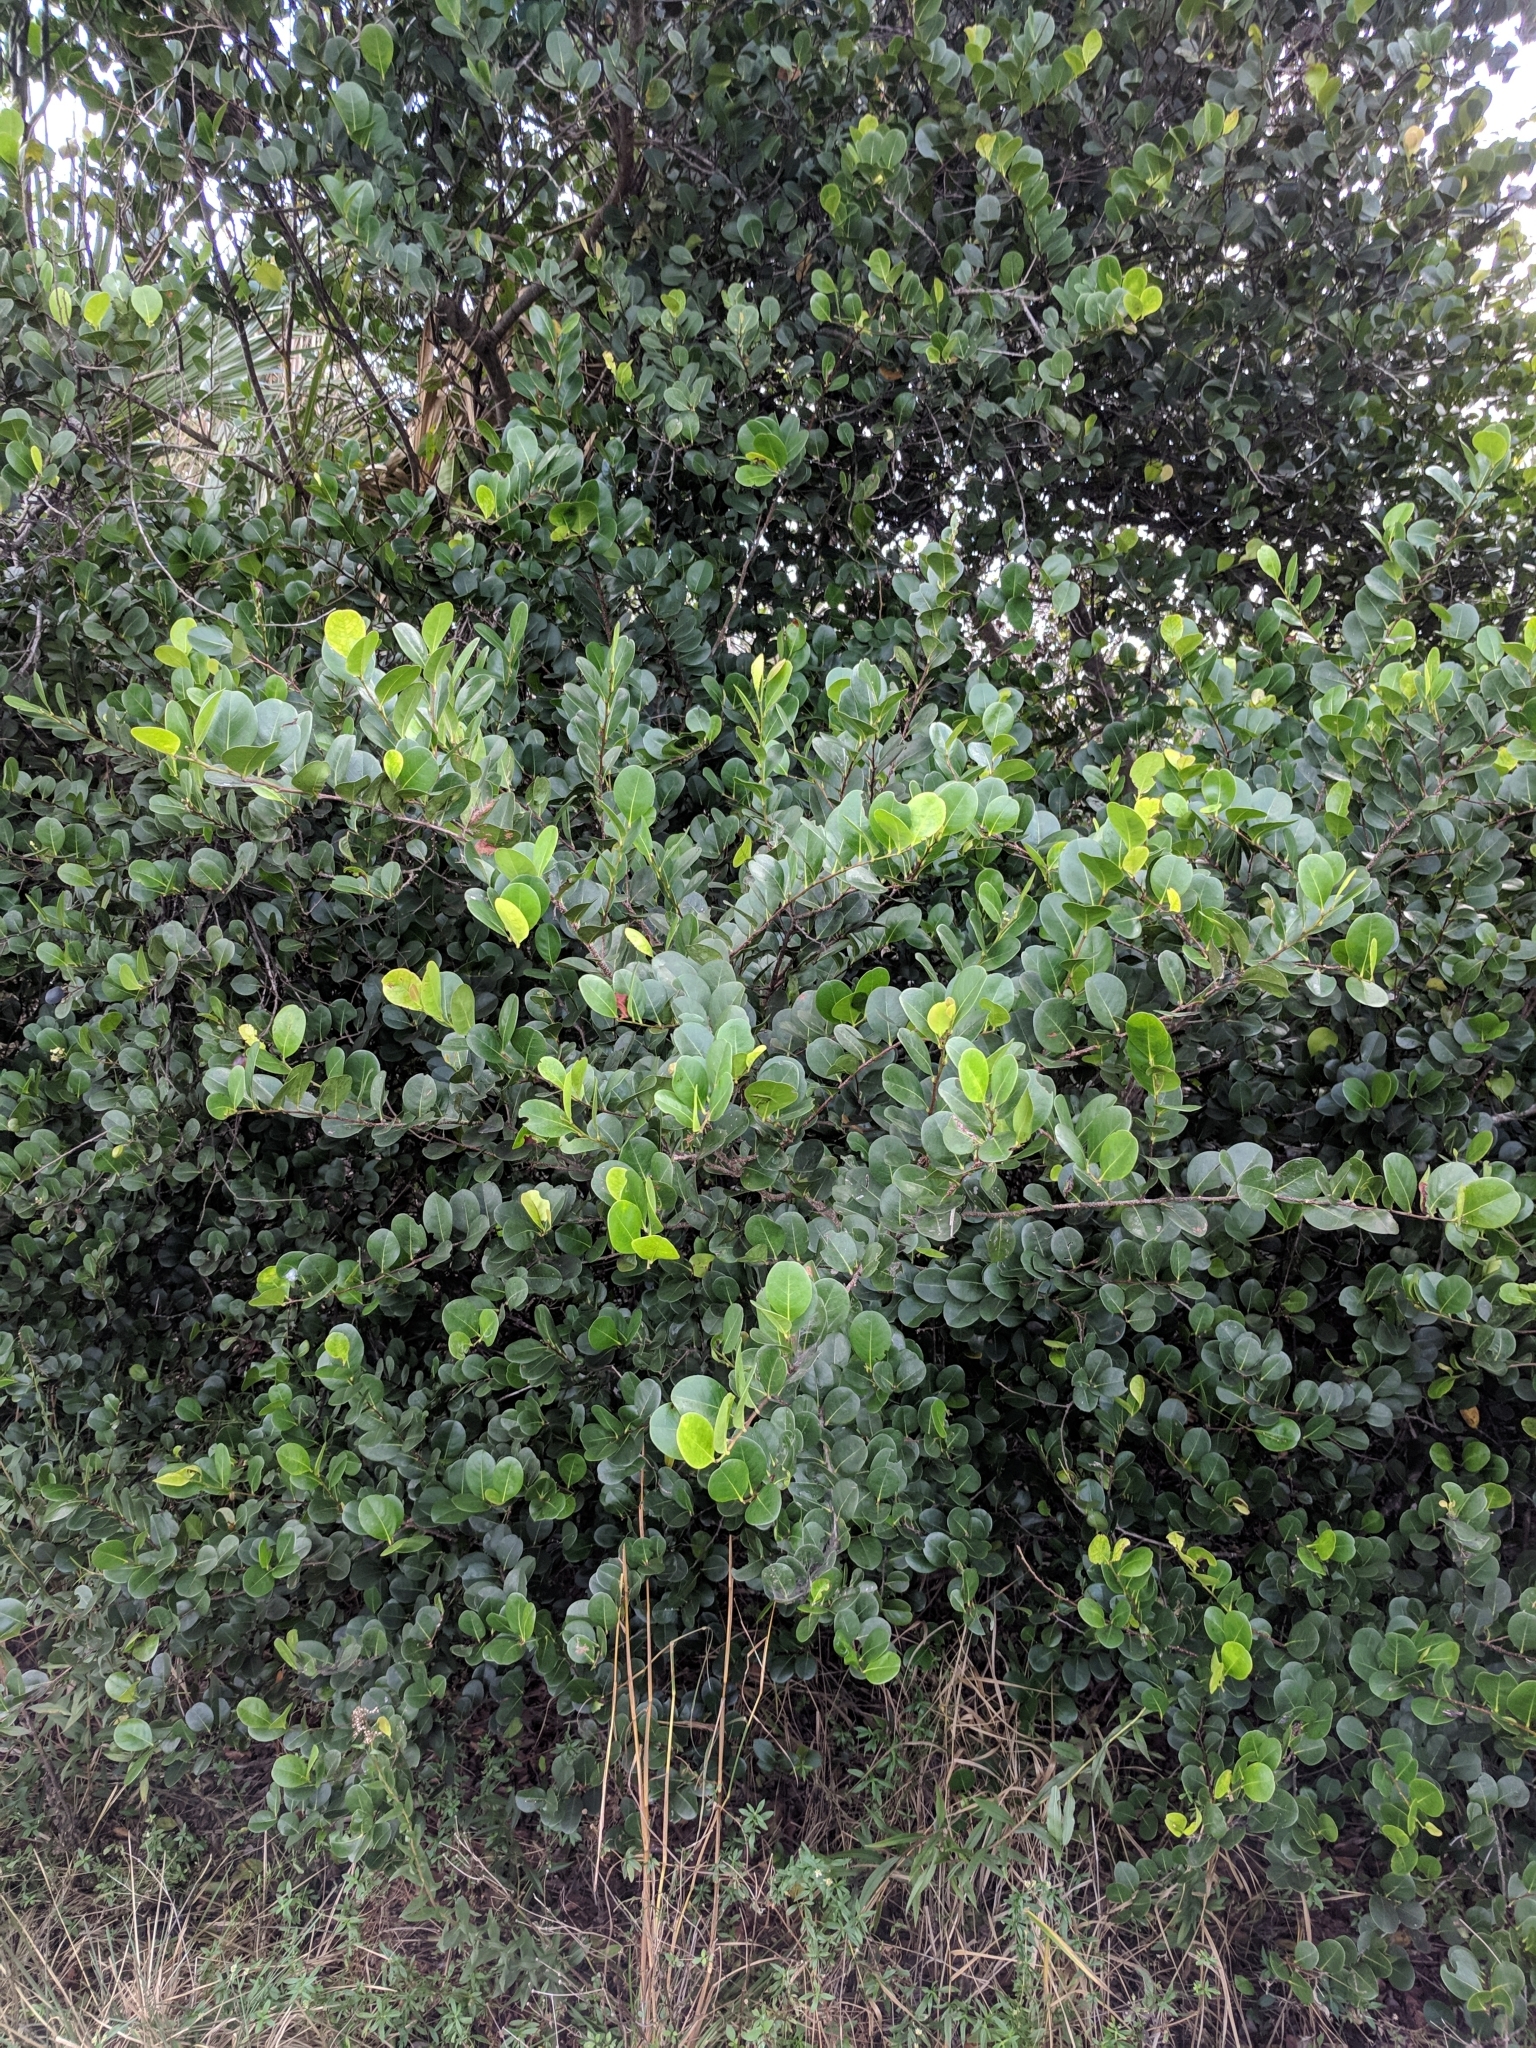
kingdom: Plantae
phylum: Tracheophyta
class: Magnoliopsida
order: Malpighiales
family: Chrysobalanaceae
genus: Chrysobalanus
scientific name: Chrysobalanus icaco
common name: Coco plum
